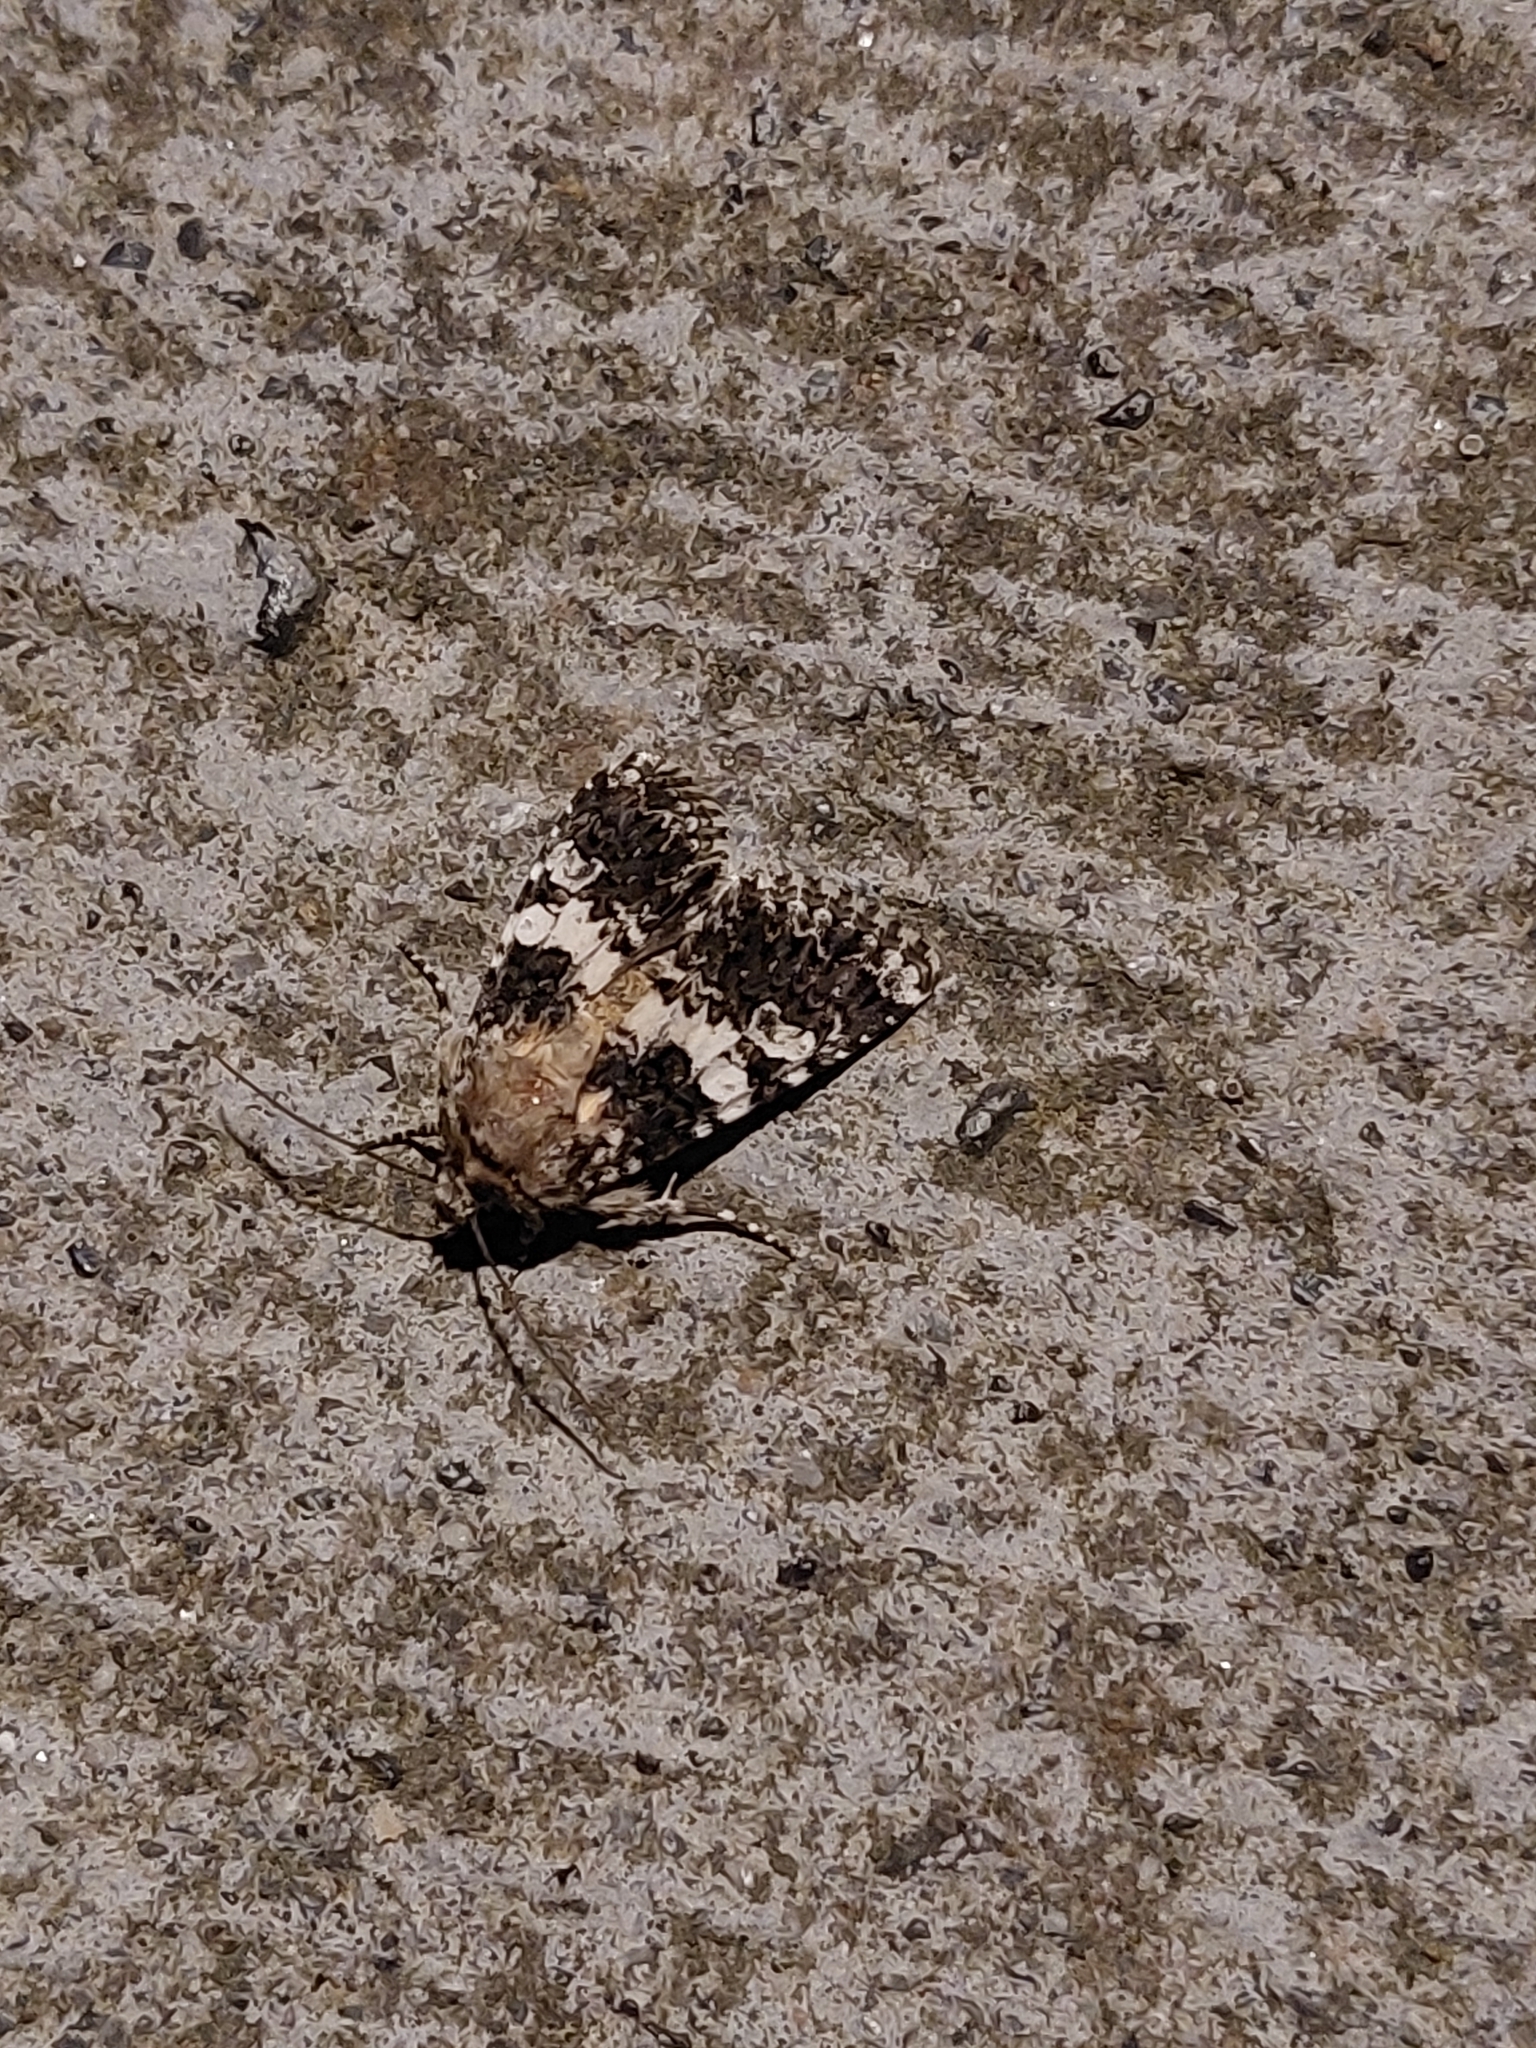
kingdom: Animalia
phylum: Arthropoda
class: Insecta
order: Lepidoptera
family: Noctuidae
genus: Hadena
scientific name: Hadena compta
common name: Varied coronet
